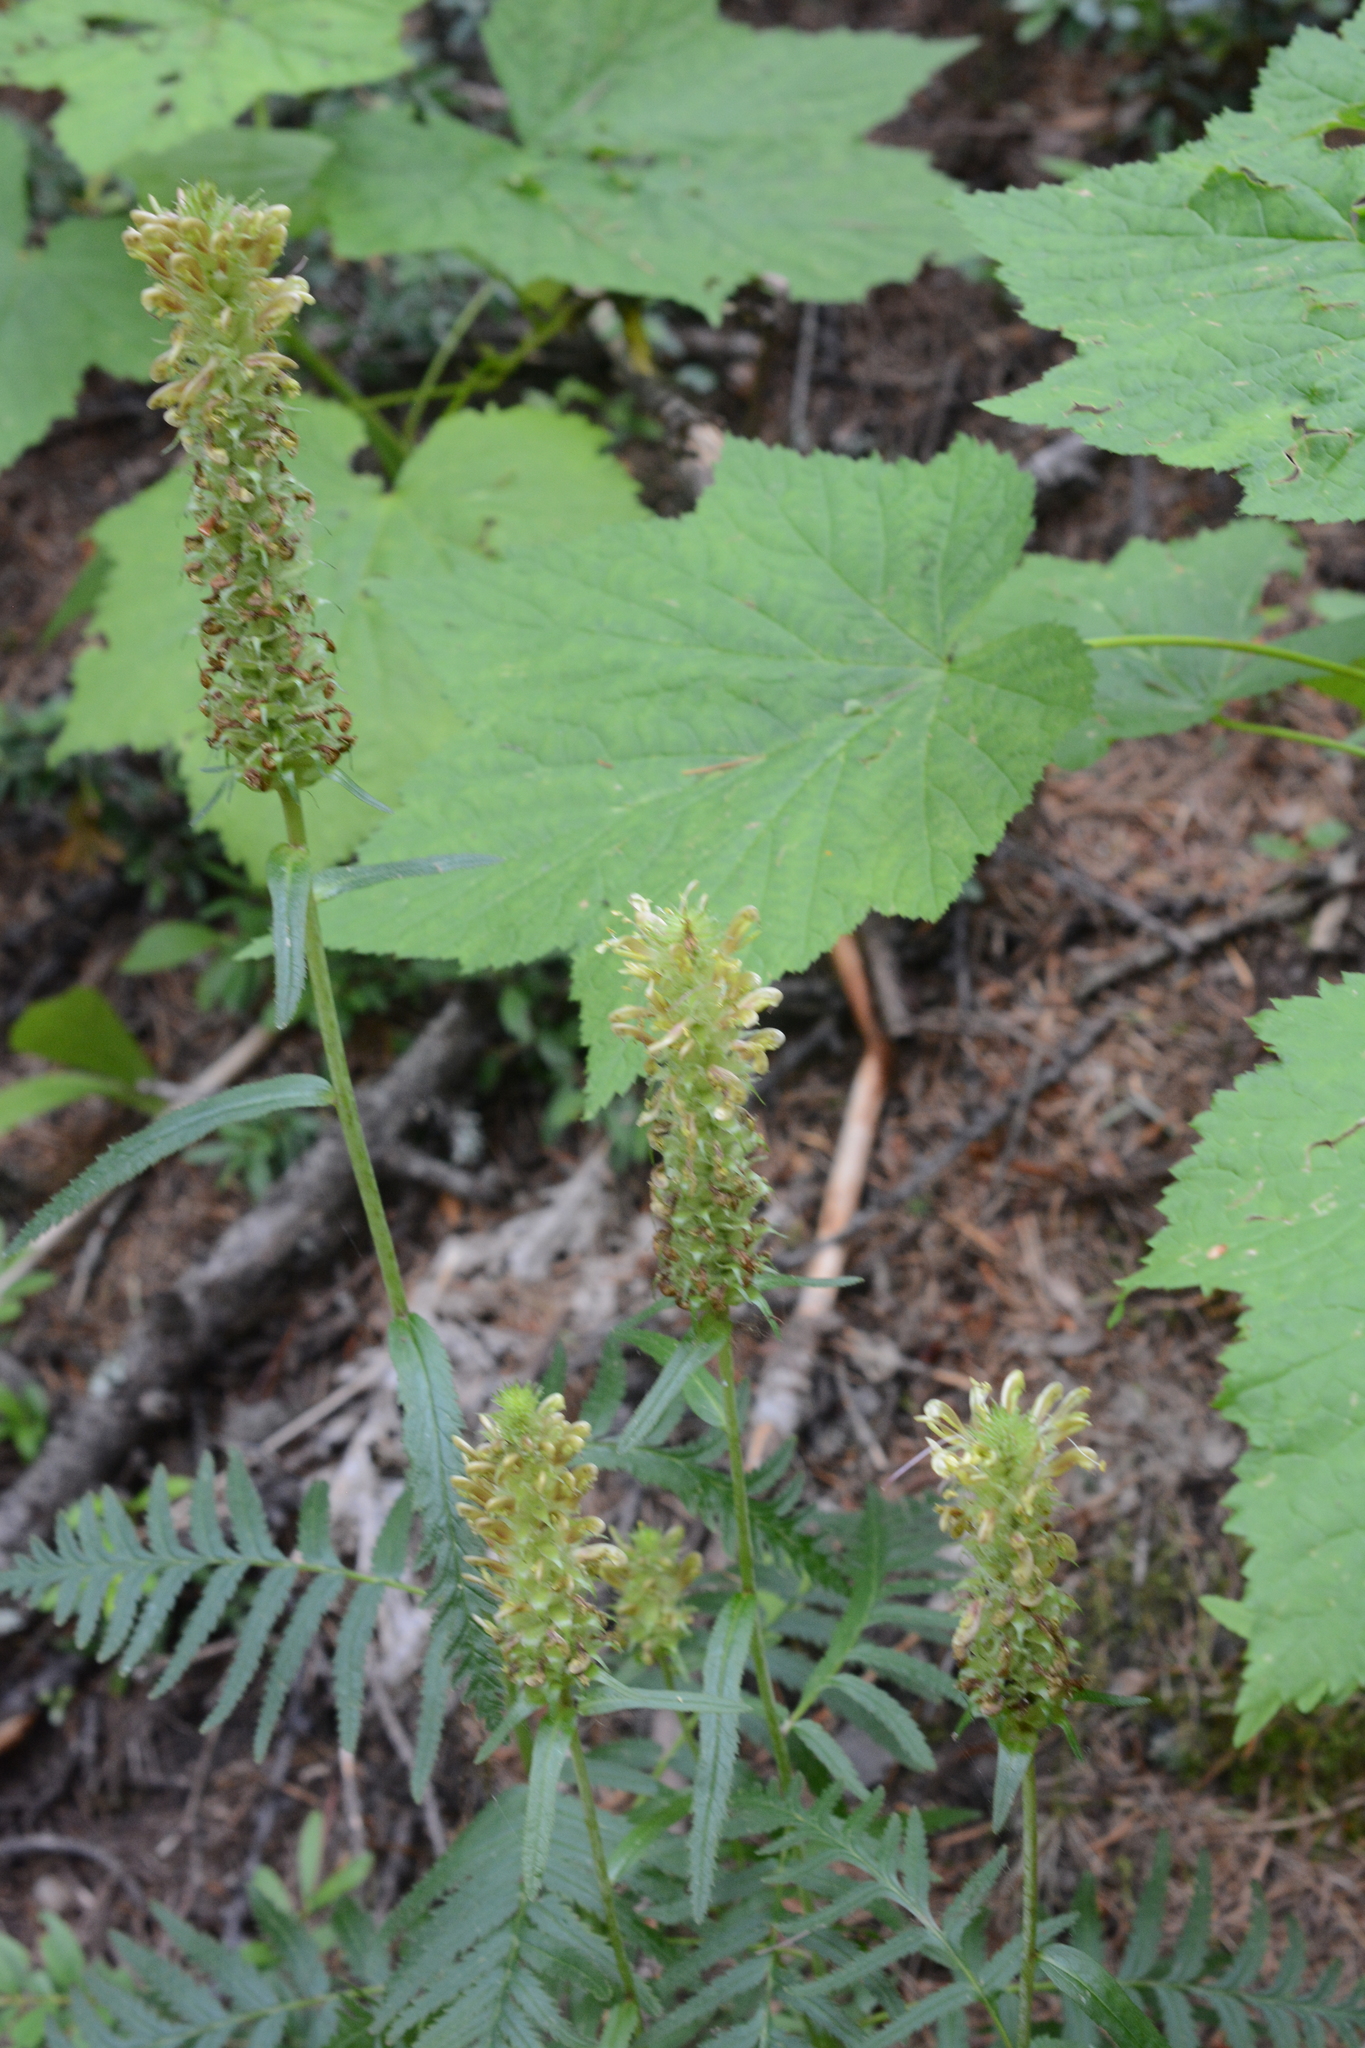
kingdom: Plantae
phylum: Tracheophyta
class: Magnoliopsida
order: Lamiales
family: Orobanchaceae
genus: Pedicularis
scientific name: Pedicularis bracteosa
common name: Bracted lousewort
